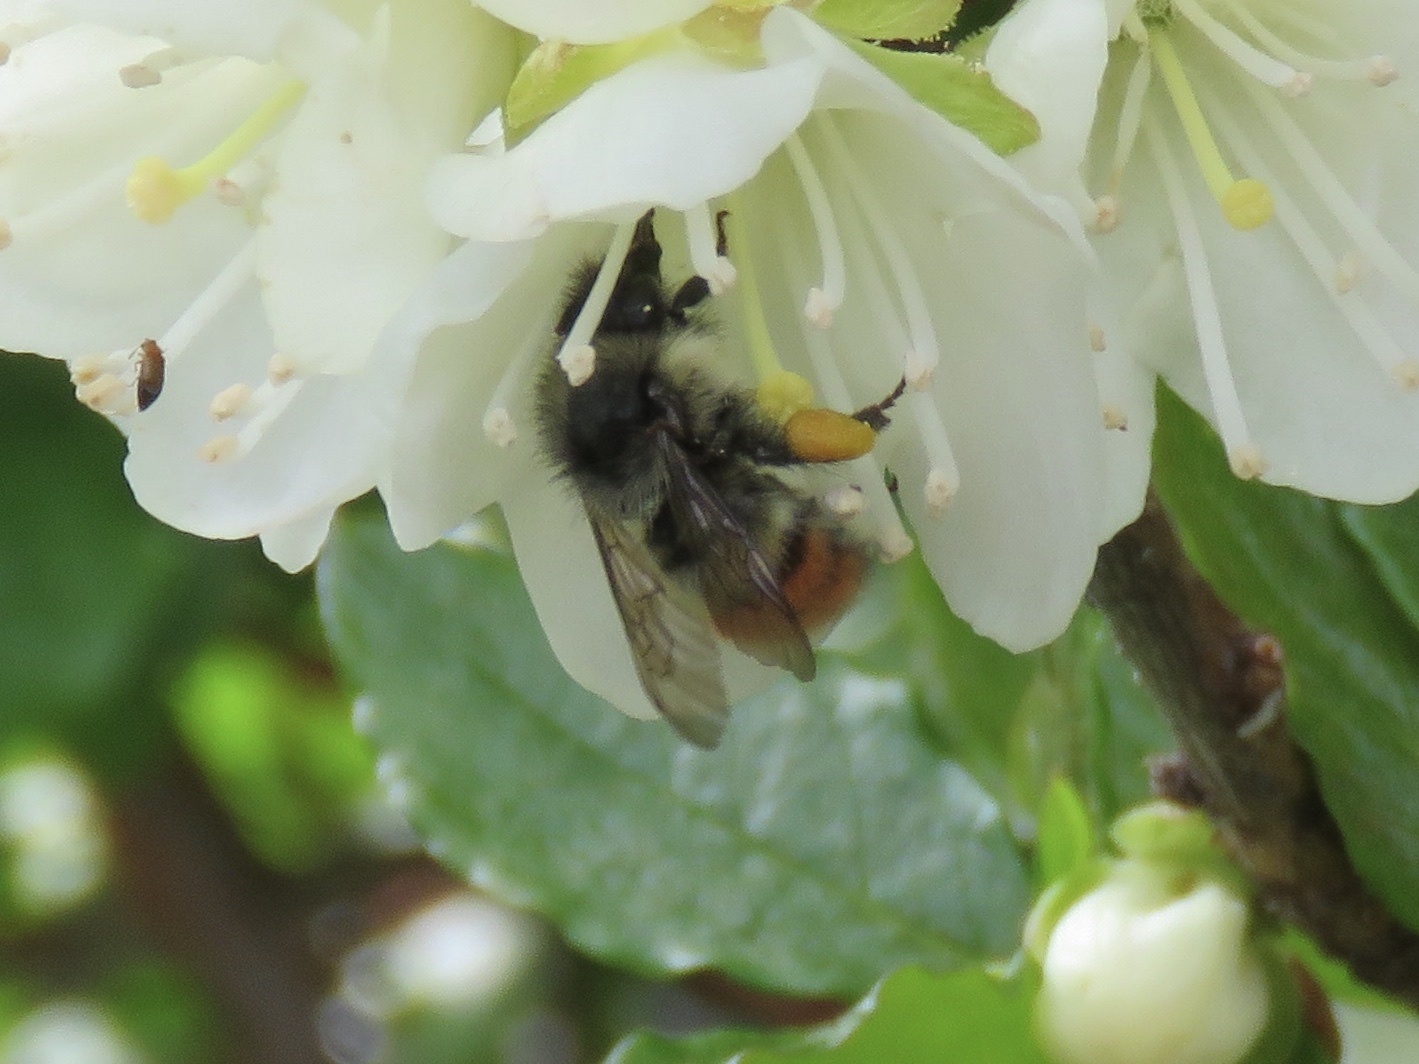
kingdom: Animalia
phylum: Arthropoda
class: Insecta
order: Hymenoptera
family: Apidae
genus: Bombus
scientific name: Bombus flavifrons
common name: Yellow head bumble bee
